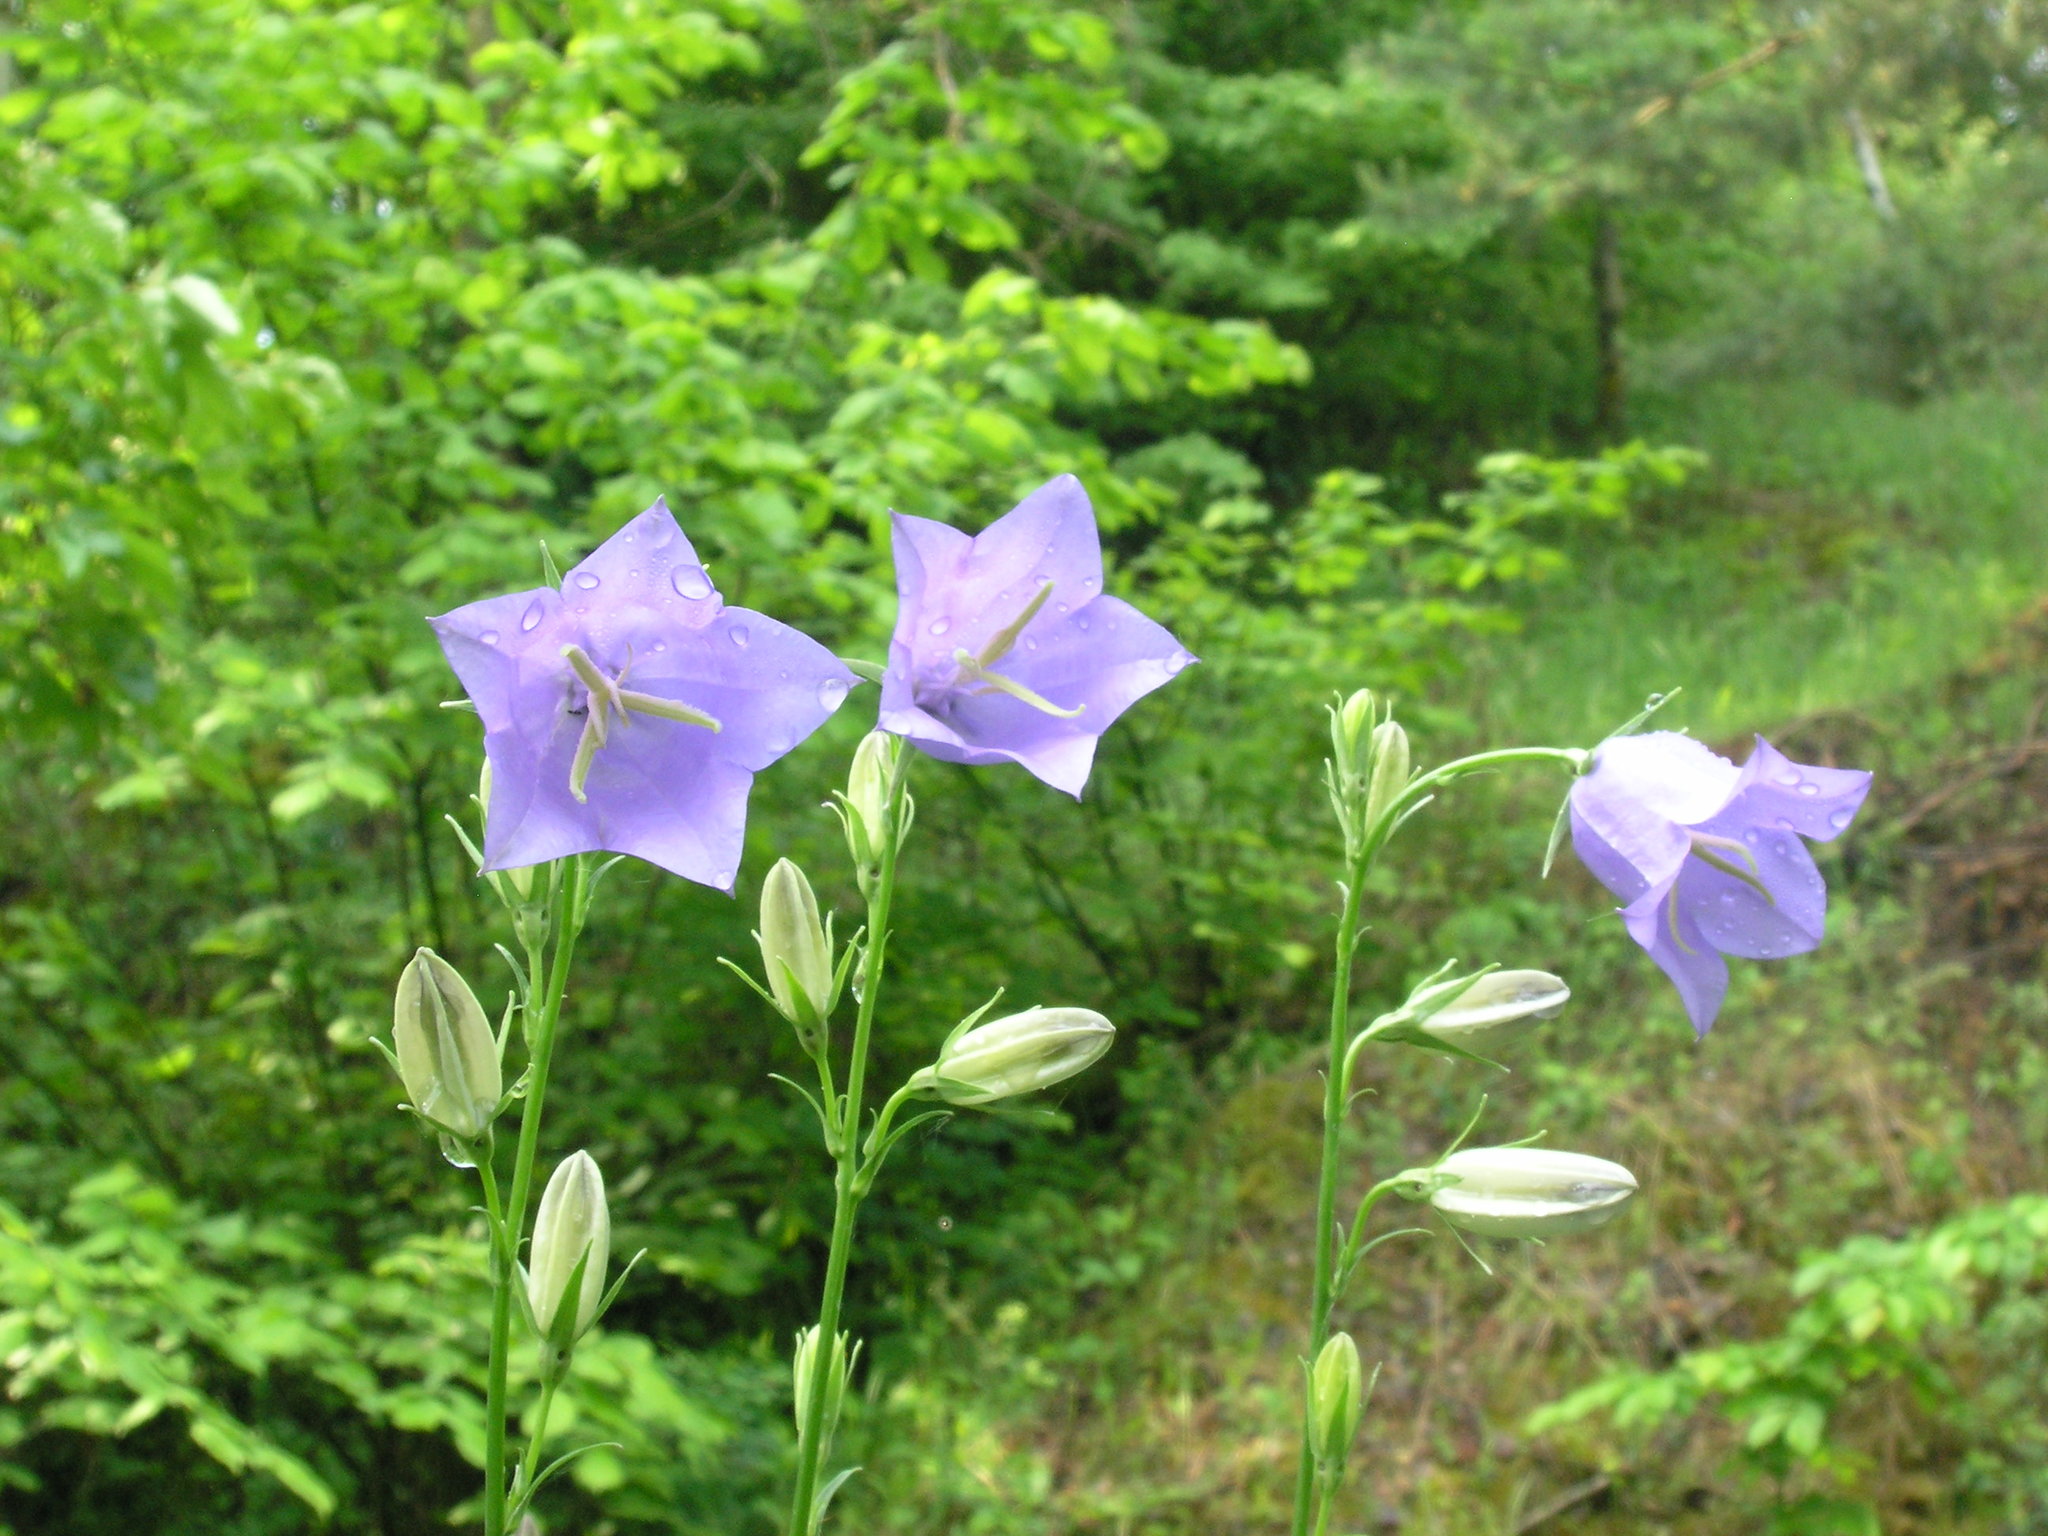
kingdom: Plantae
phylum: Tracheophyta
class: Magnoliopsida
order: Asterales
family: Campanulaceae
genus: Campanula
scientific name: Campanula persicifolia
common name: Peach-leaved bellflower
